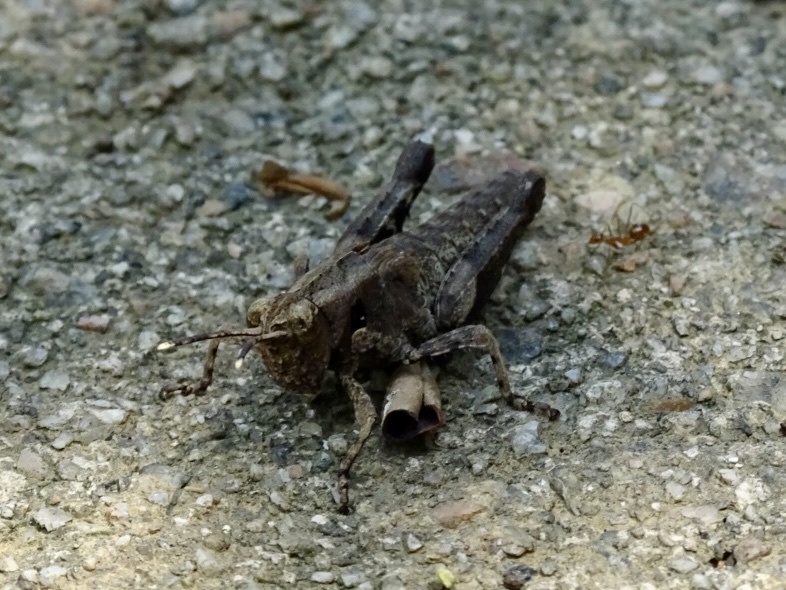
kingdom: Animalia
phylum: Arthropoda
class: Insecta
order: Orthoptera
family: Acrididae
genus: Traulia
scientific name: Traulia orientalis
